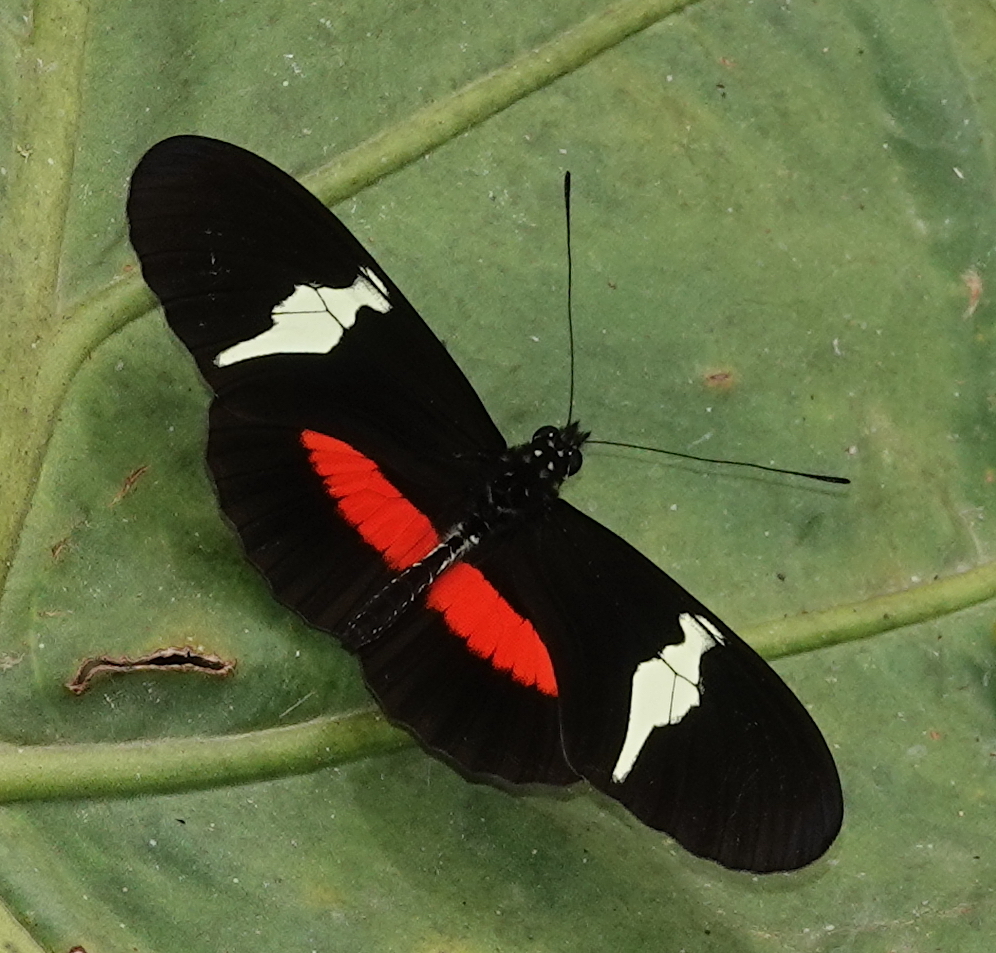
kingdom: Animalia
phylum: Arthropoda
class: Insecta
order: Lepidoptera
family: Nymphalidae
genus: Heliconius
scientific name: Heliconius clysonymus
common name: Clysonymus longwing
